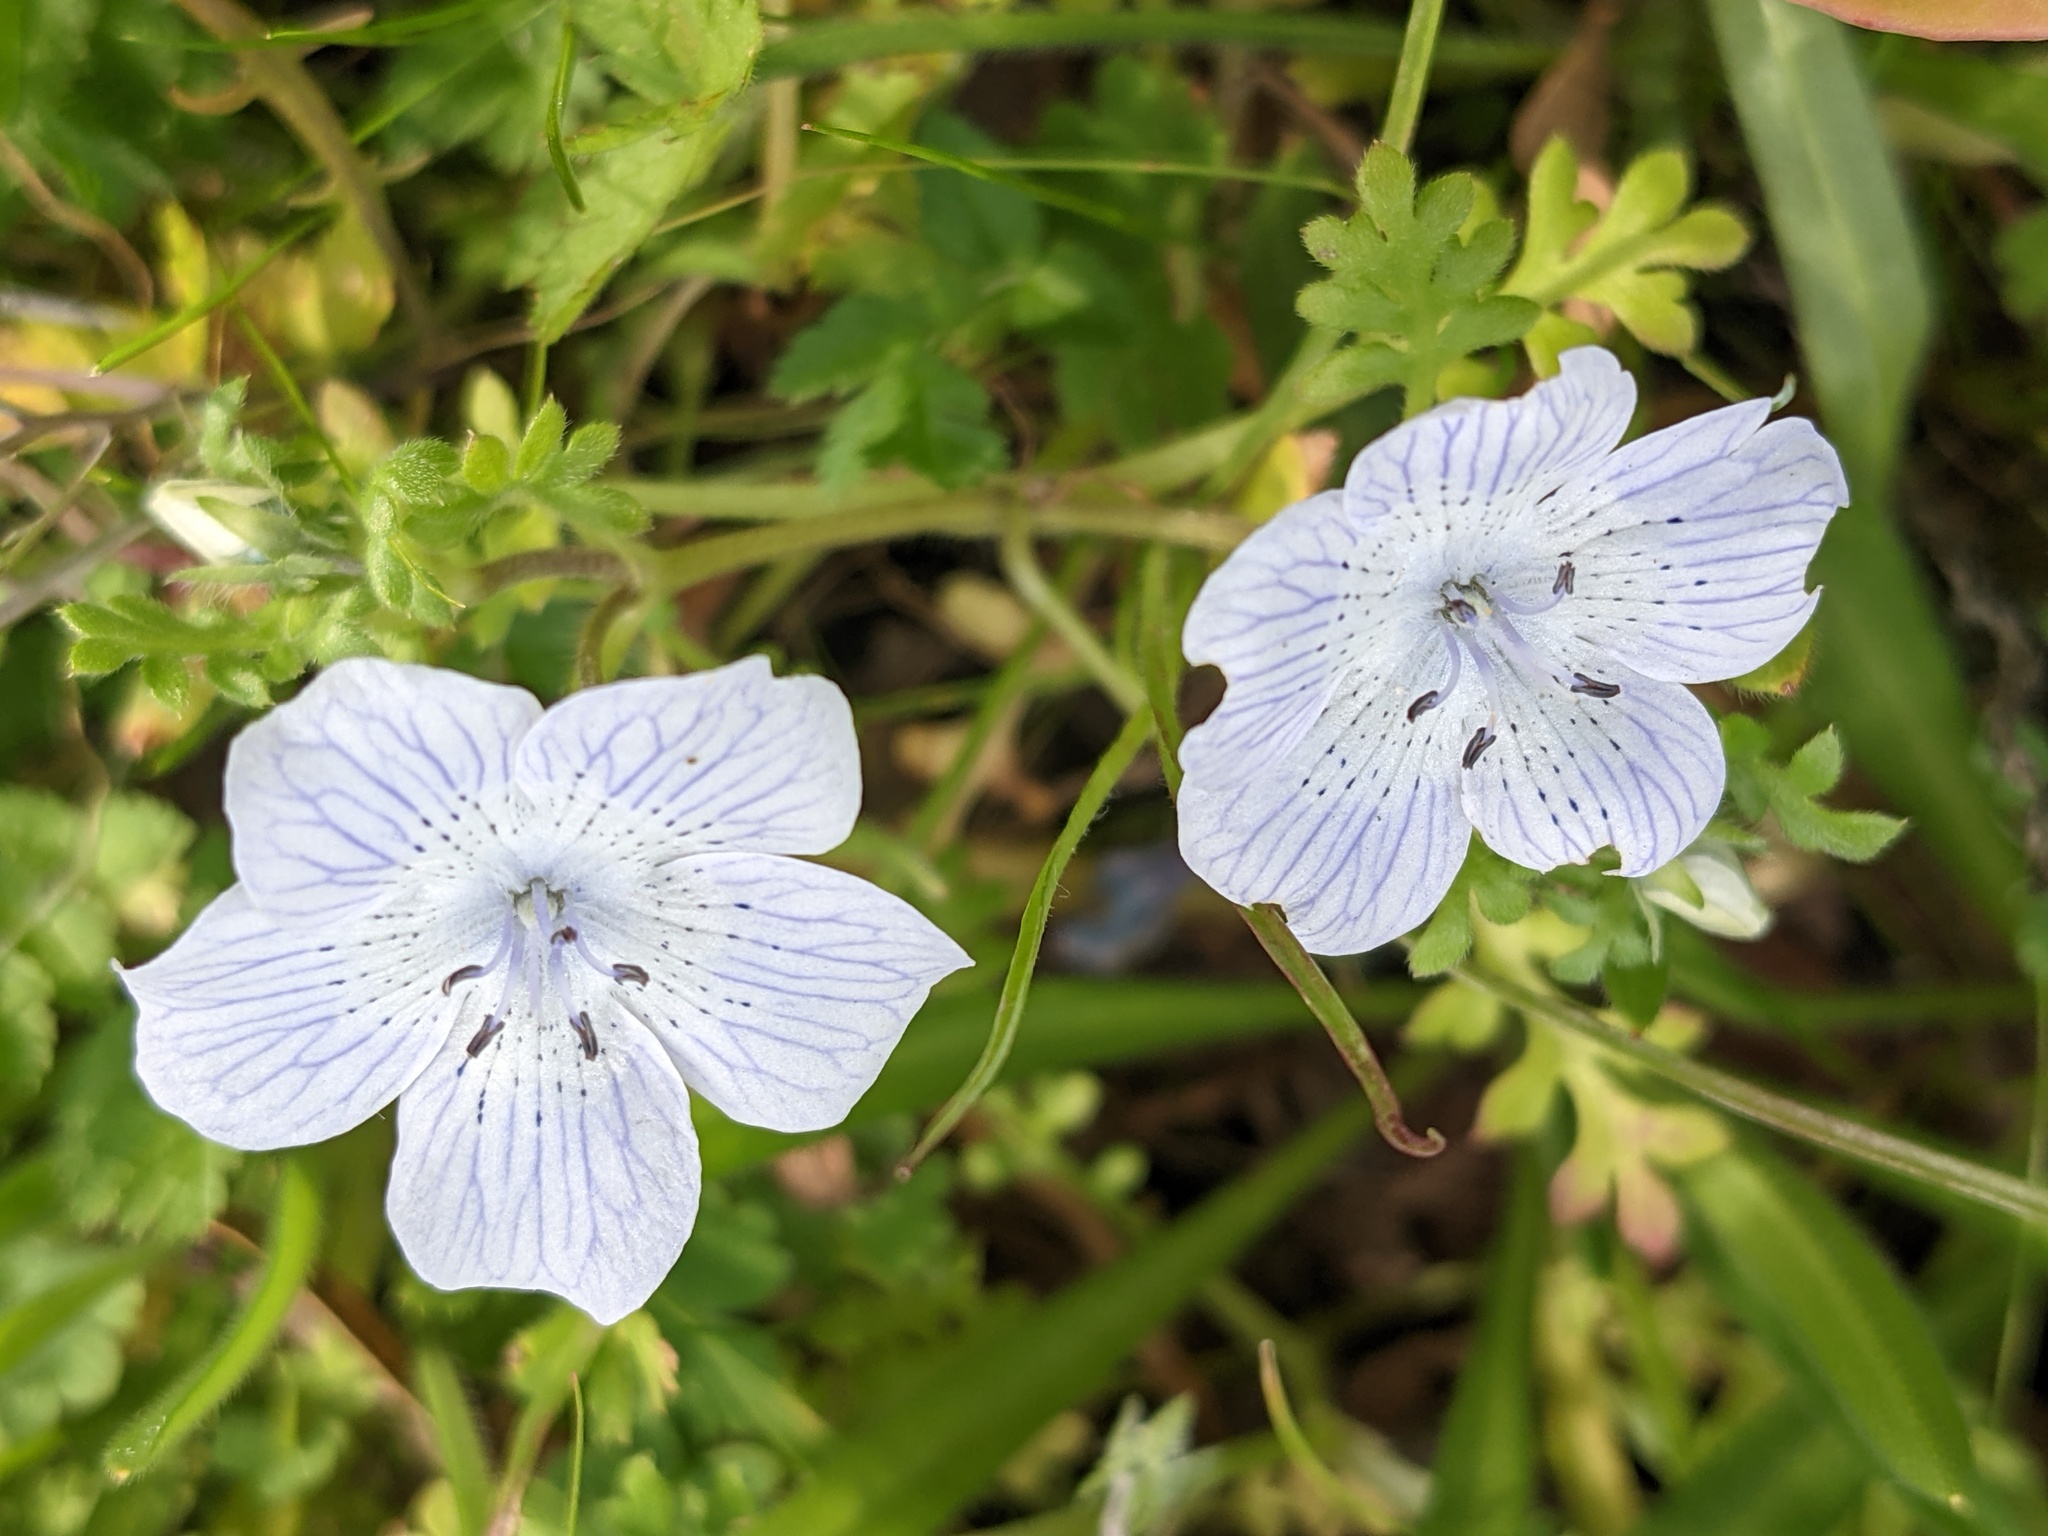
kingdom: Plantae
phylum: Tracheophyta
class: Magnoliopsida
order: Boraginales
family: Hydrophyllaceae
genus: Nemophila
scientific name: Nemophila menziesii
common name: Baby's-blue-eyes
